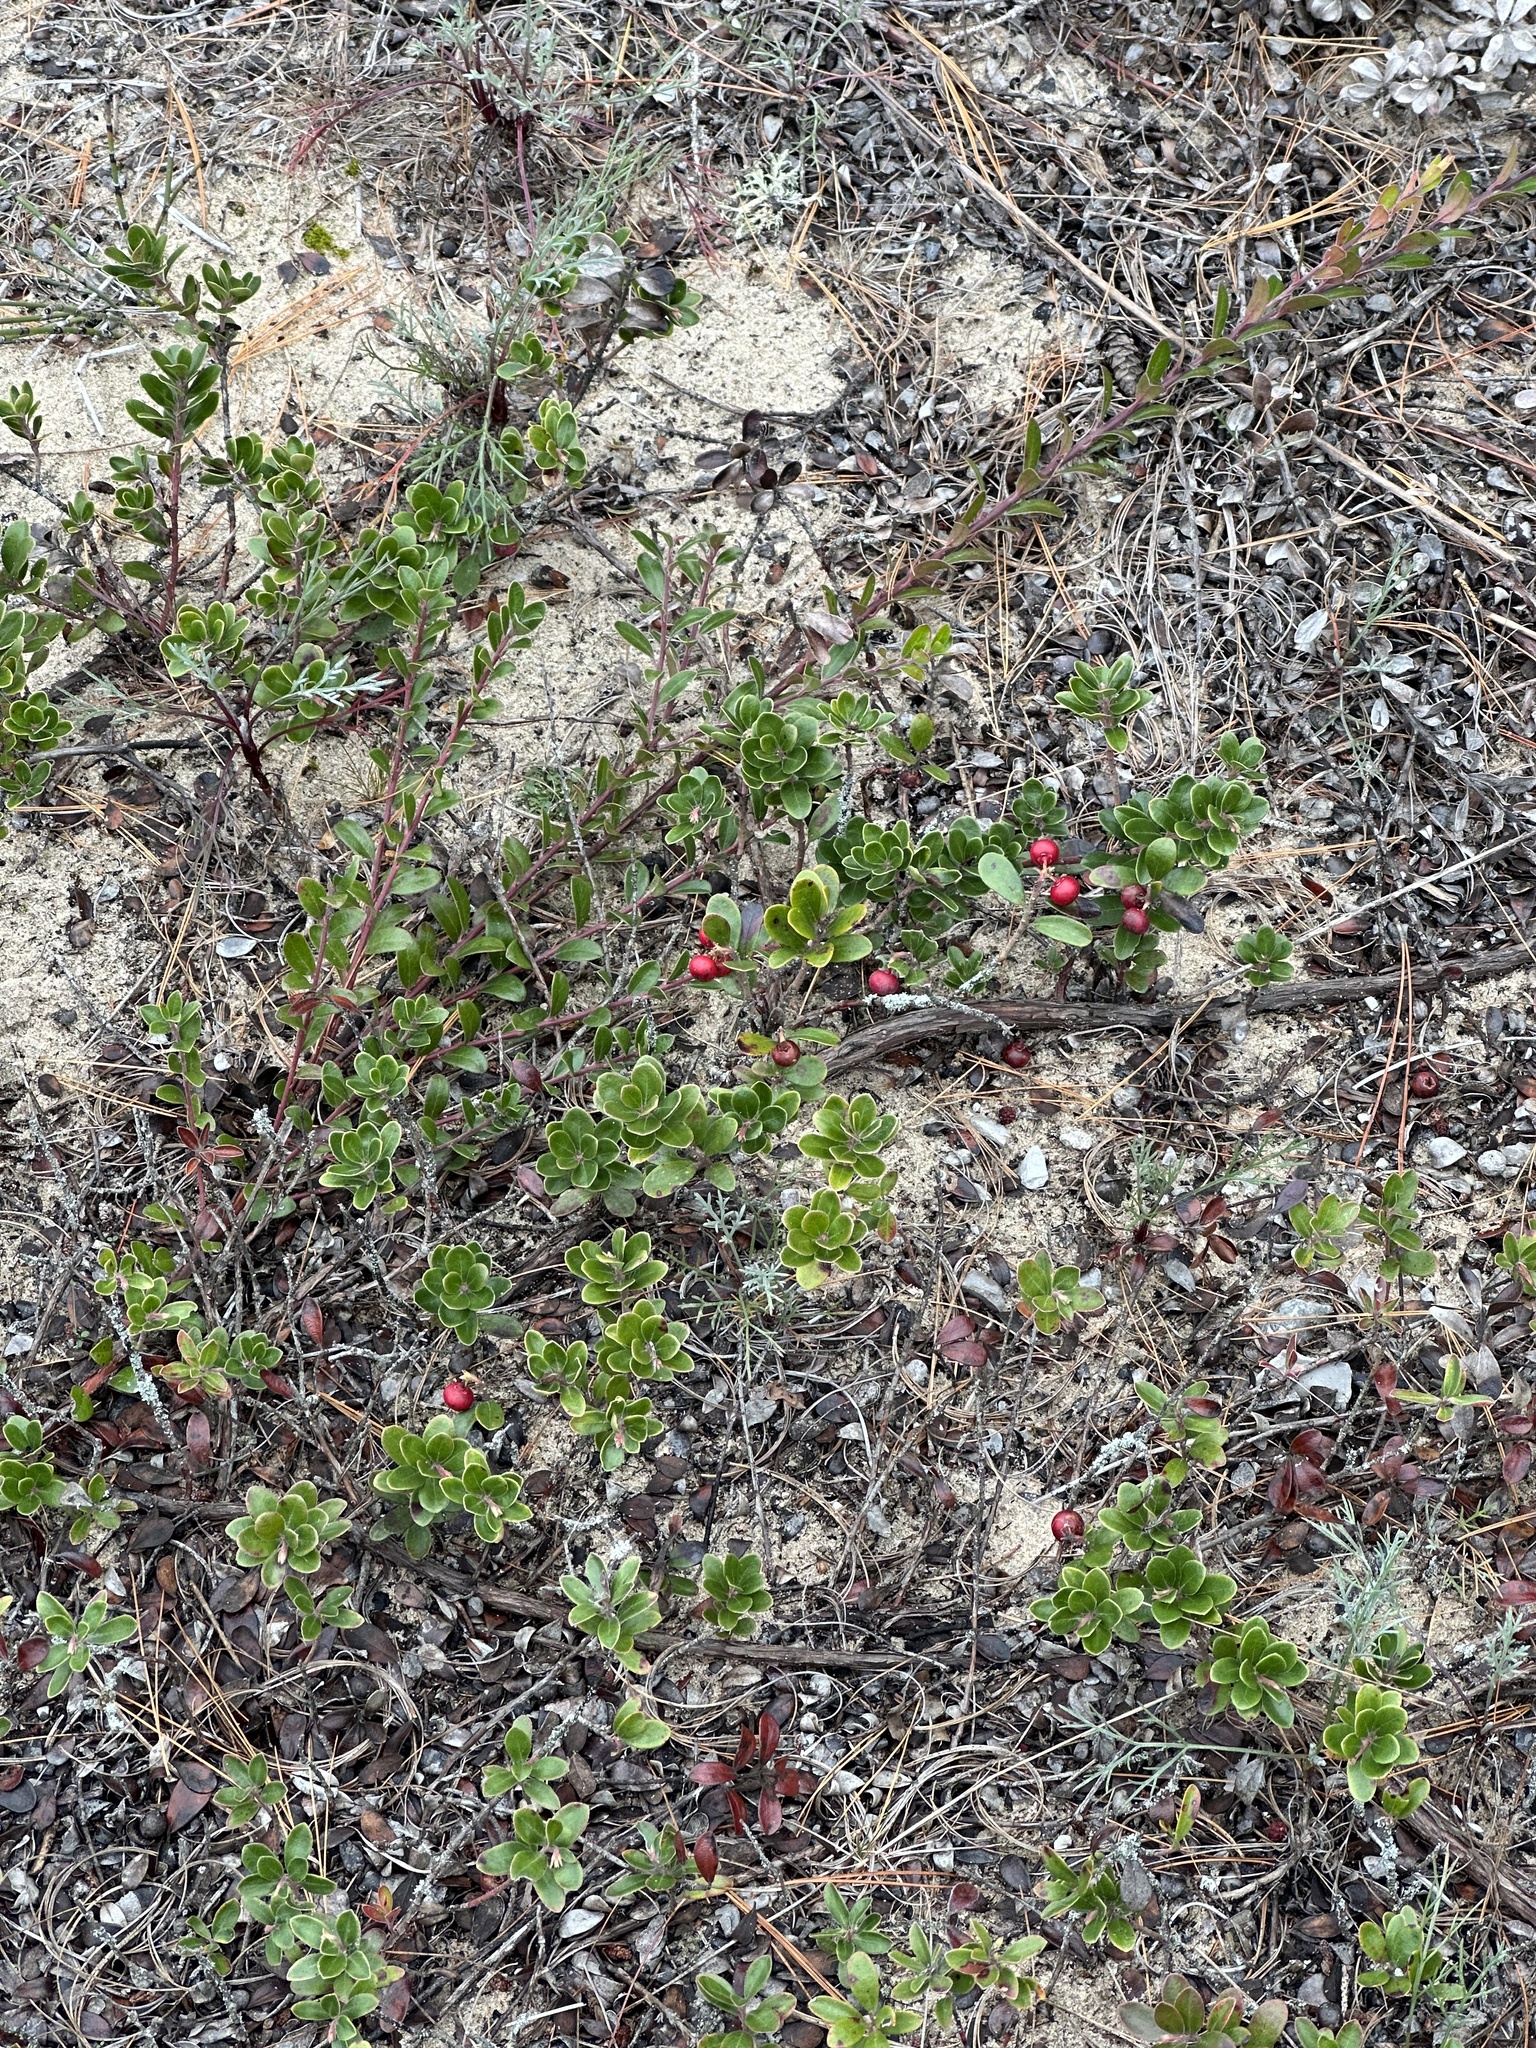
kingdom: Plantae
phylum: Tracheophyta
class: Magnoliopsida
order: Ericales
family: Ericaceae
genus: Arctostaphylos
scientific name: Arctostaphylos uva-ursi
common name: Bearberry
